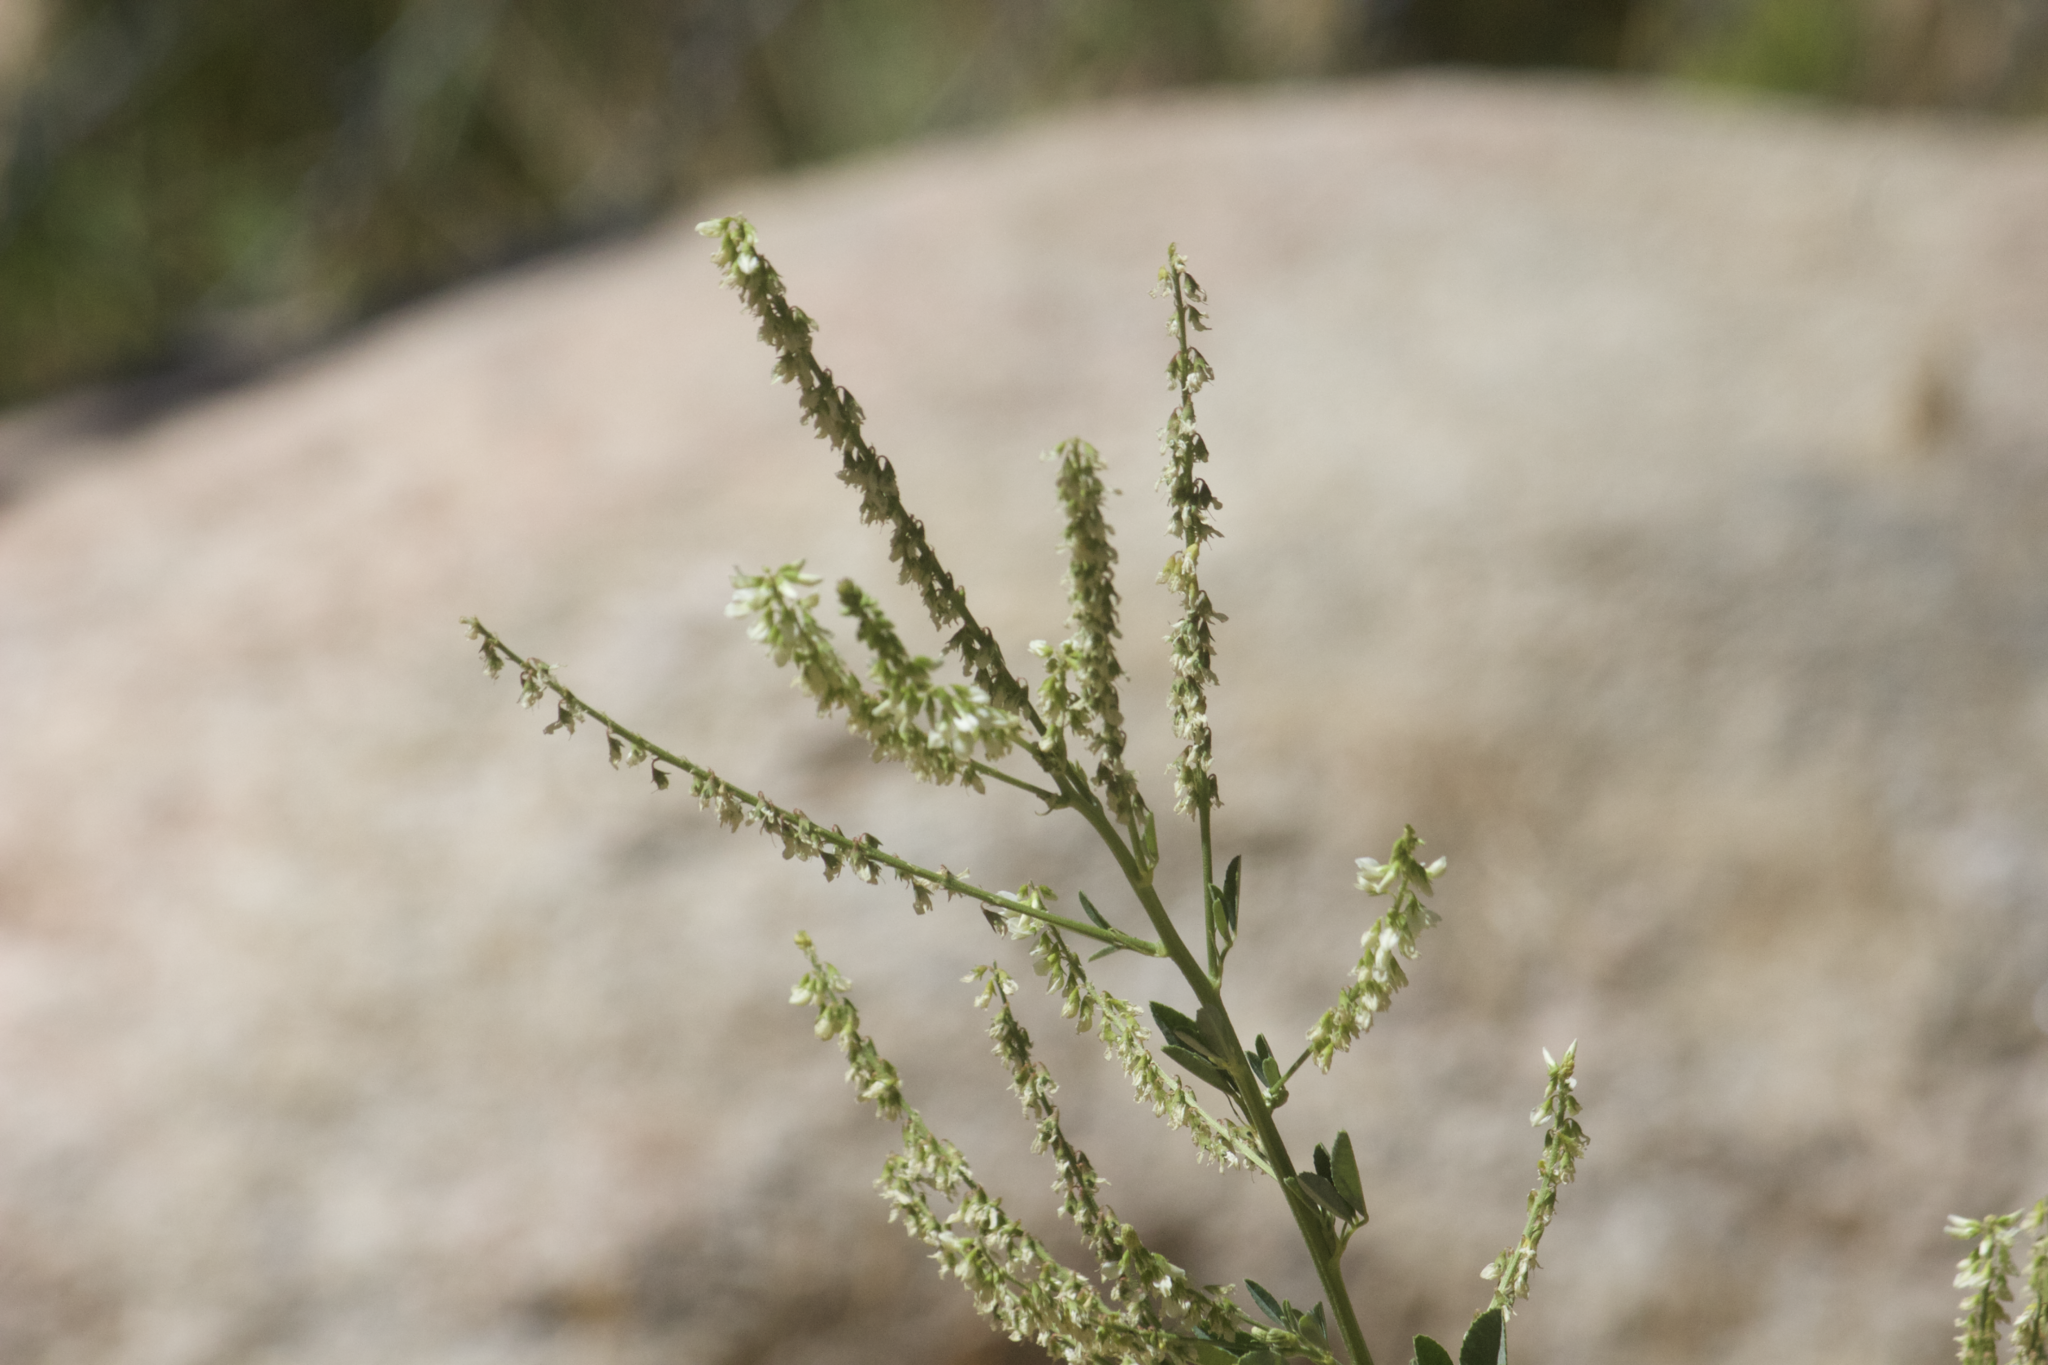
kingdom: Plantae
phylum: Tracheophyta
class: Magnoliopsida
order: Fabales
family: Fabaceae
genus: Melilotus
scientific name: Melilotus albus
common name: White melilot
